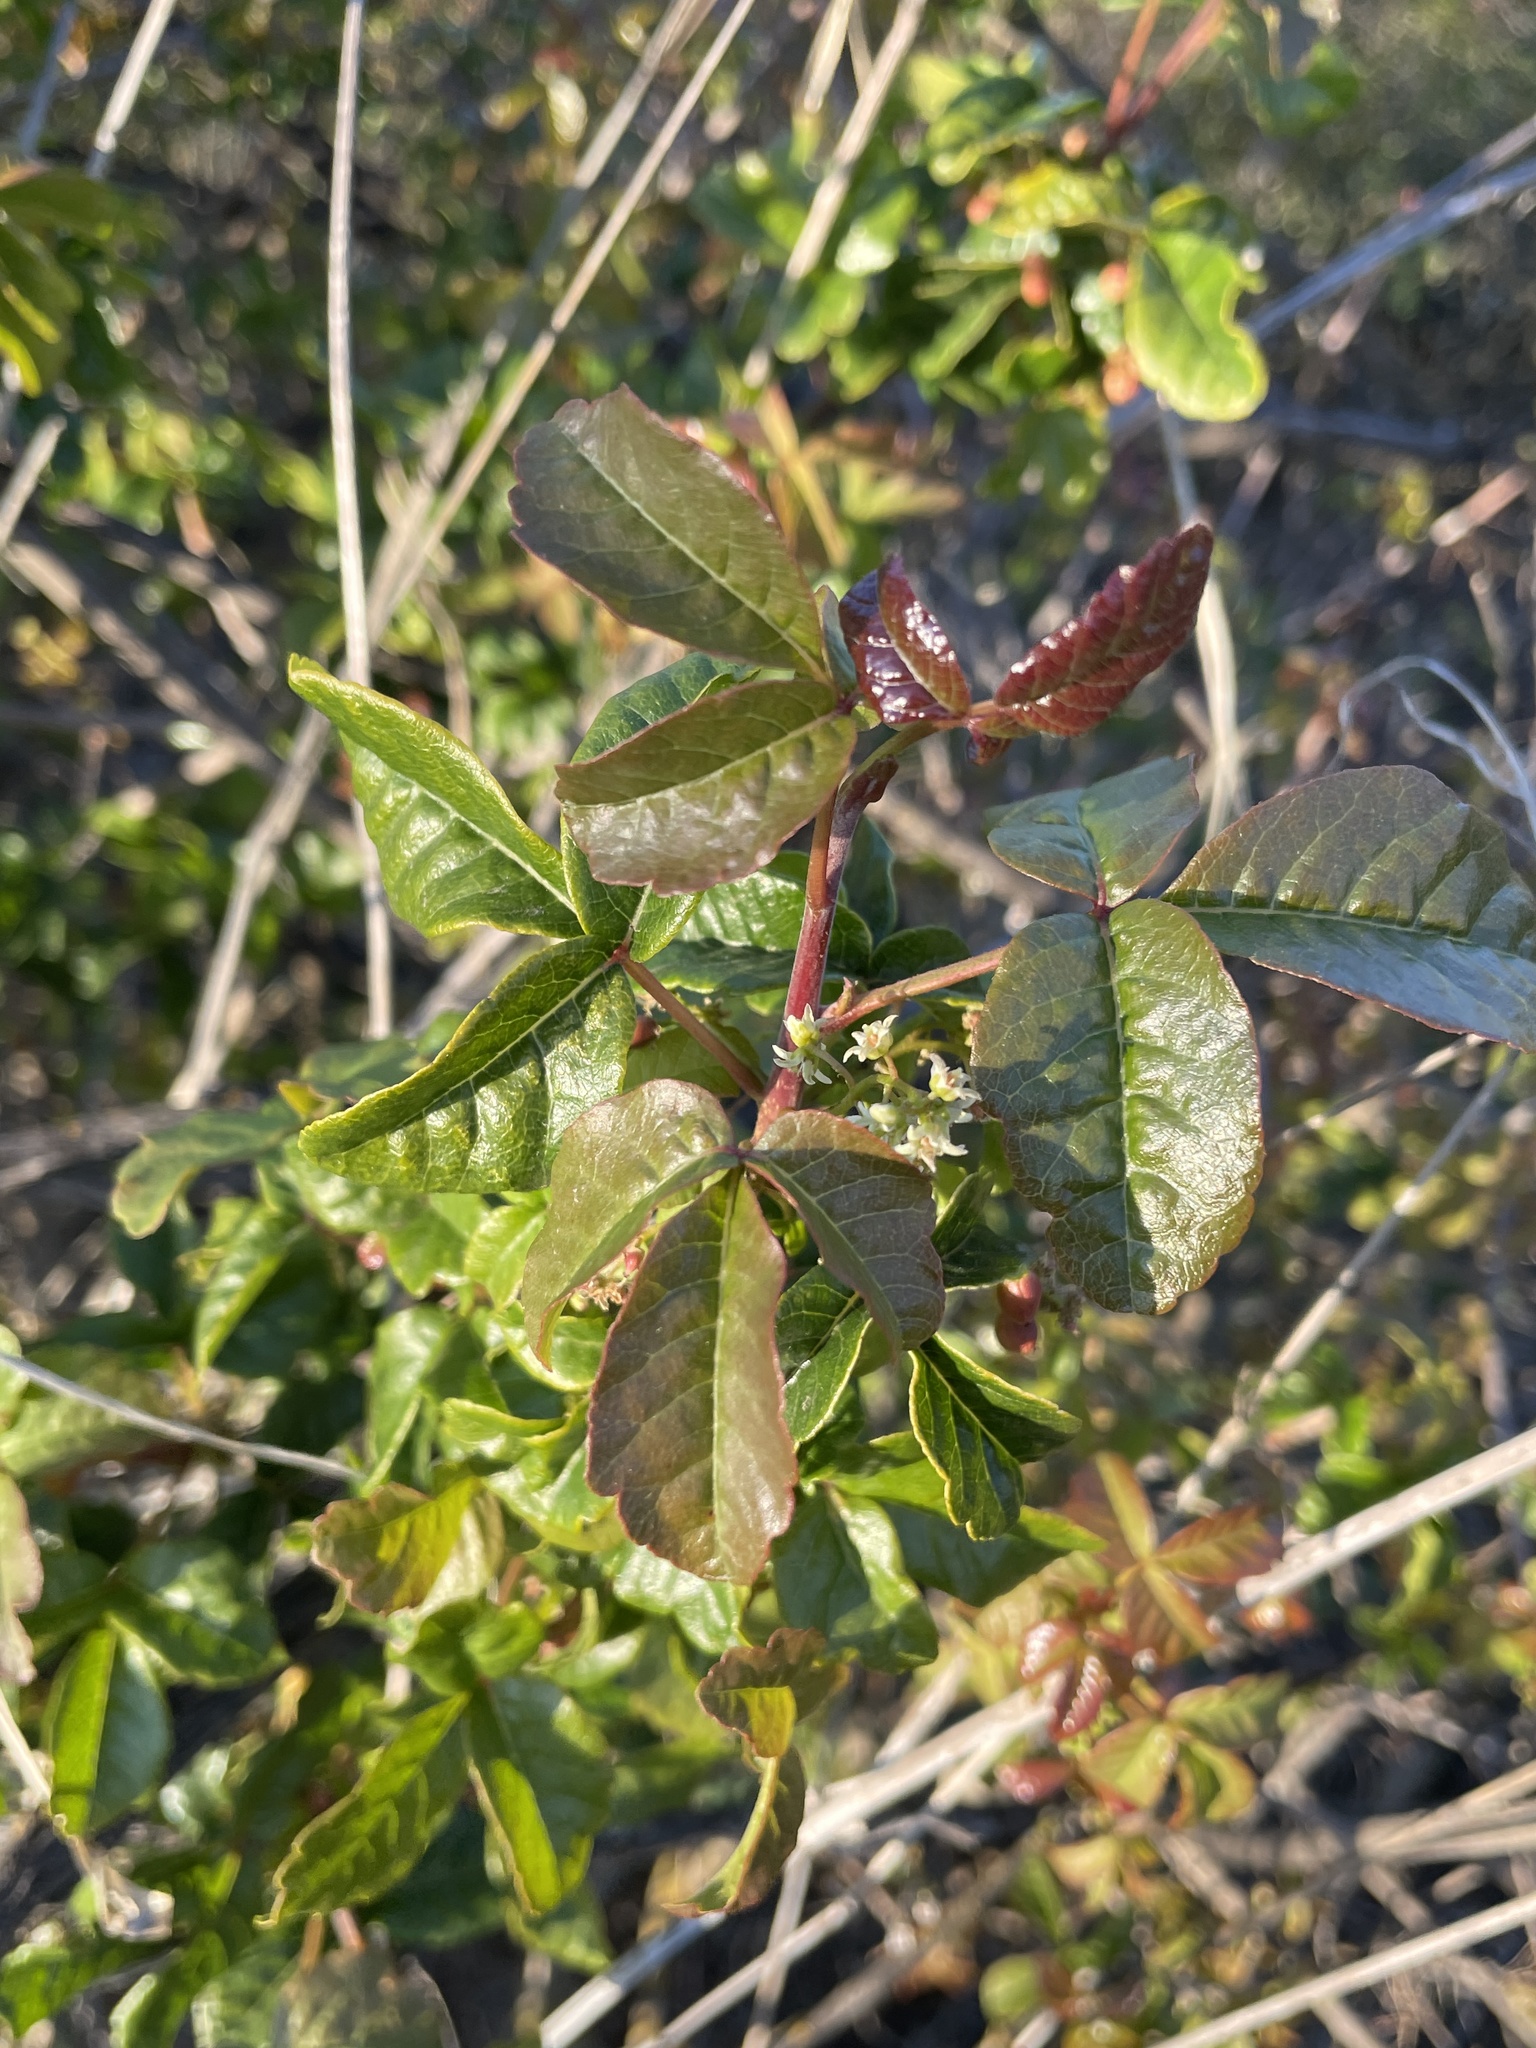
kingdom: Plantae
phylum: Tracheophyta
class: Magnoliopsida
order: Sapindales
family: Anacardiaceae
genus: Toxicodendron
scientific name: Toxicodendron diversilobum
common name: Pacific poison-oak
